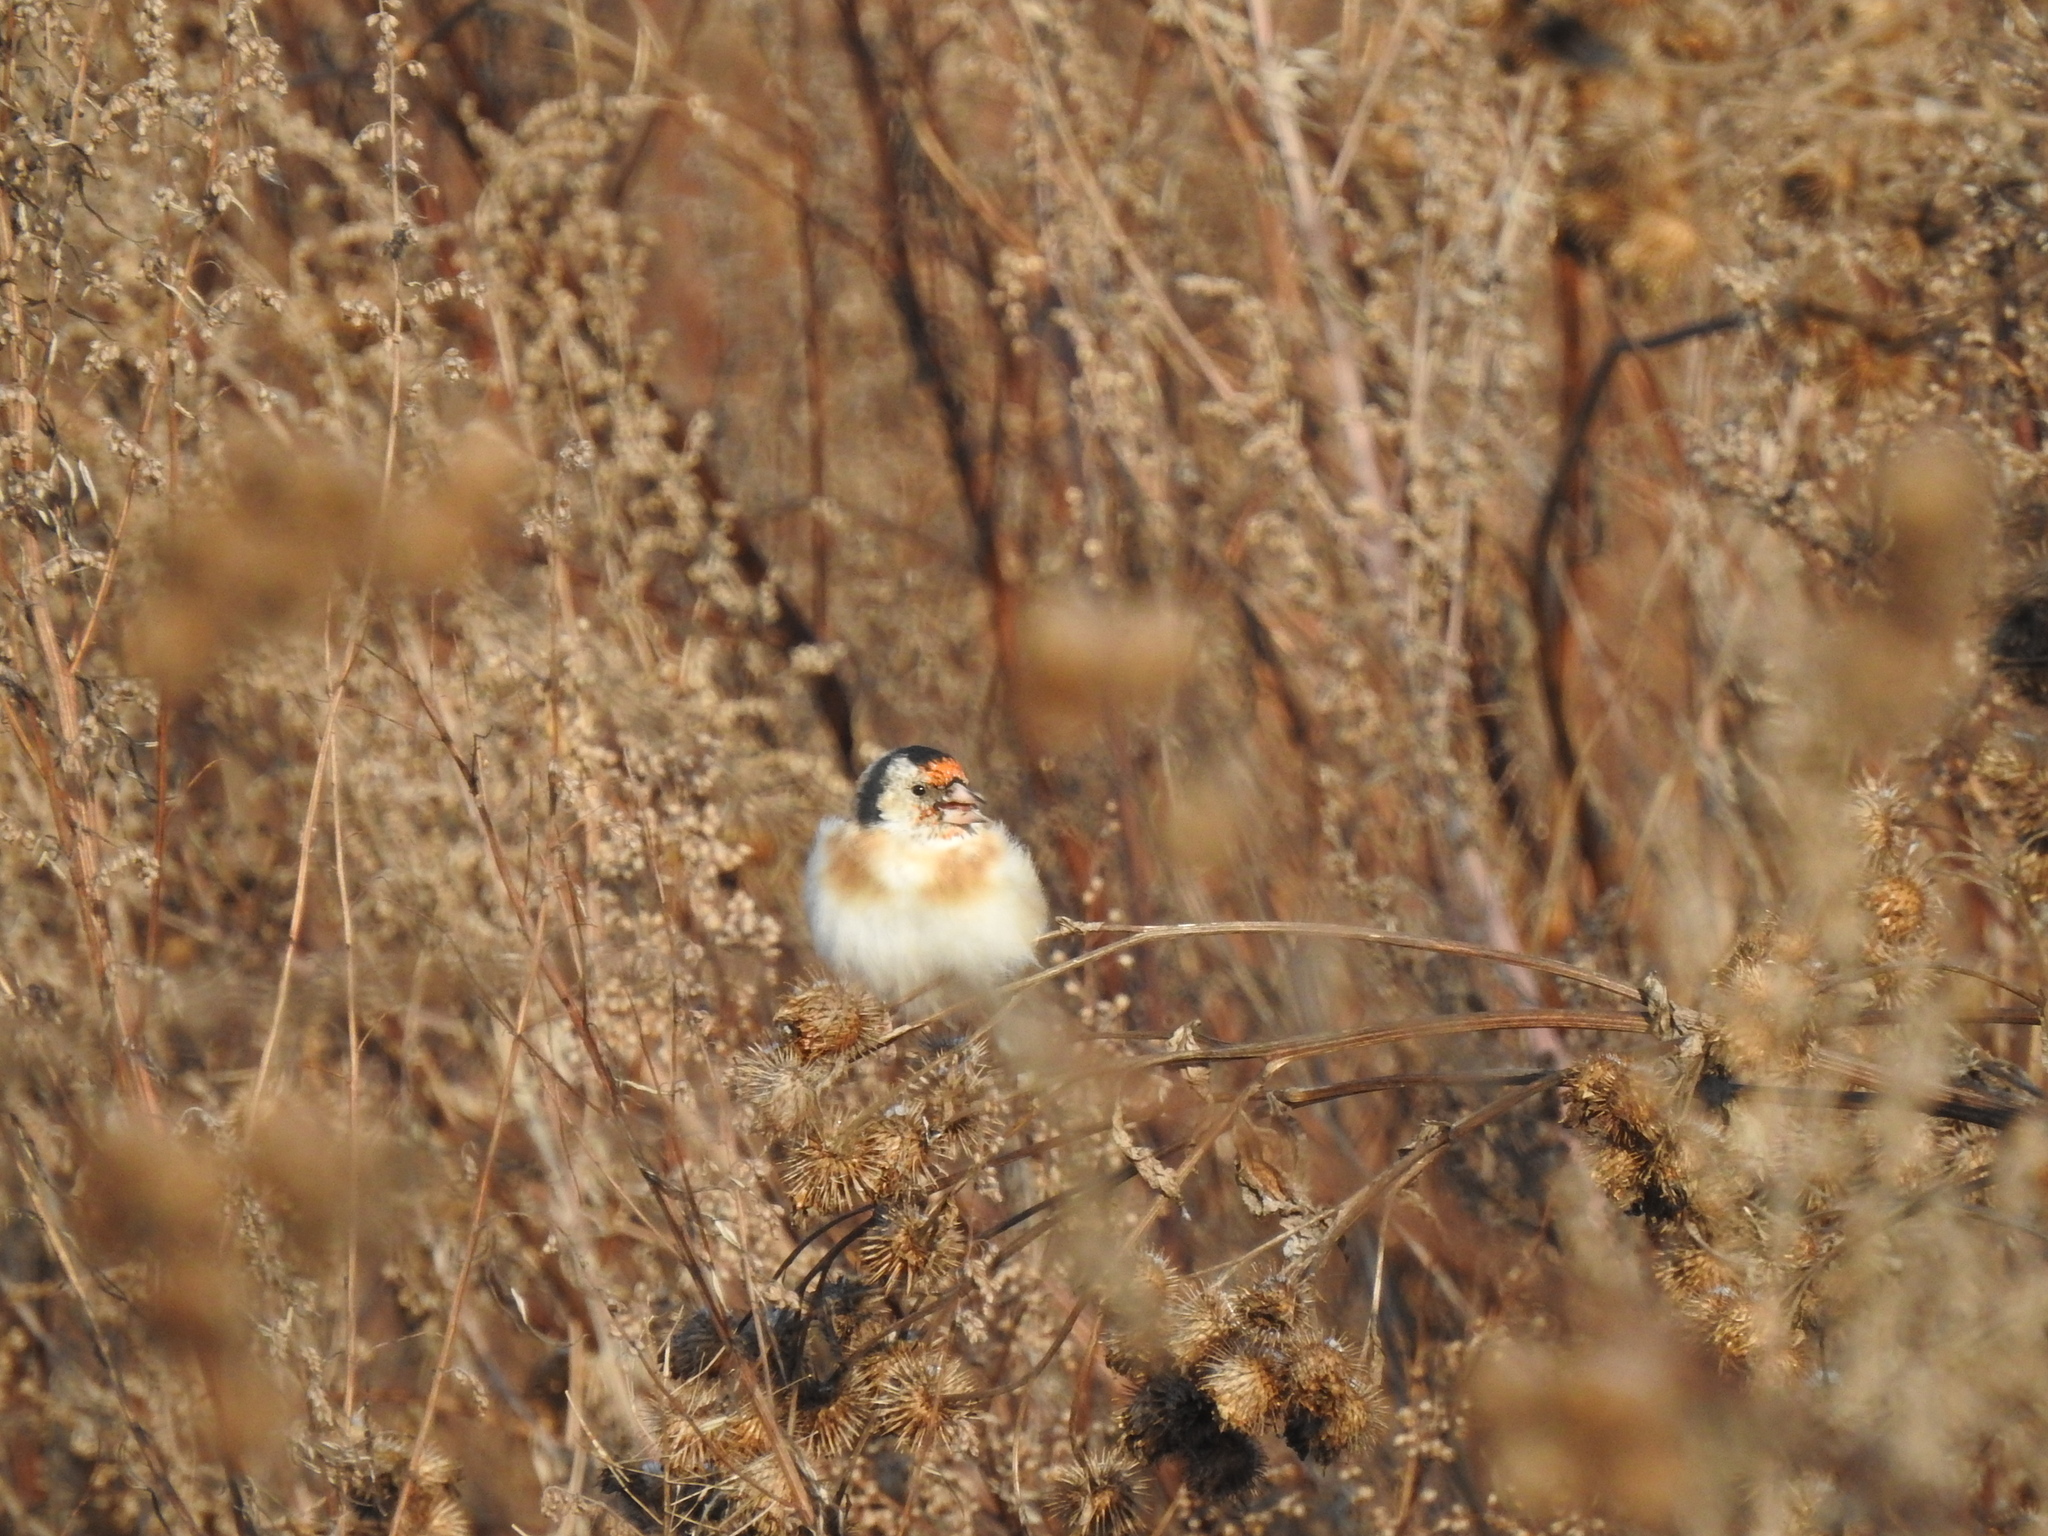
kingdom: Animalia
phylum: Chordata
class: Aves
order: Passeriformes
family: Fringillidae
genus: Carduelis
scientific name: Carduelis carduelis
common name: European goldfinch
